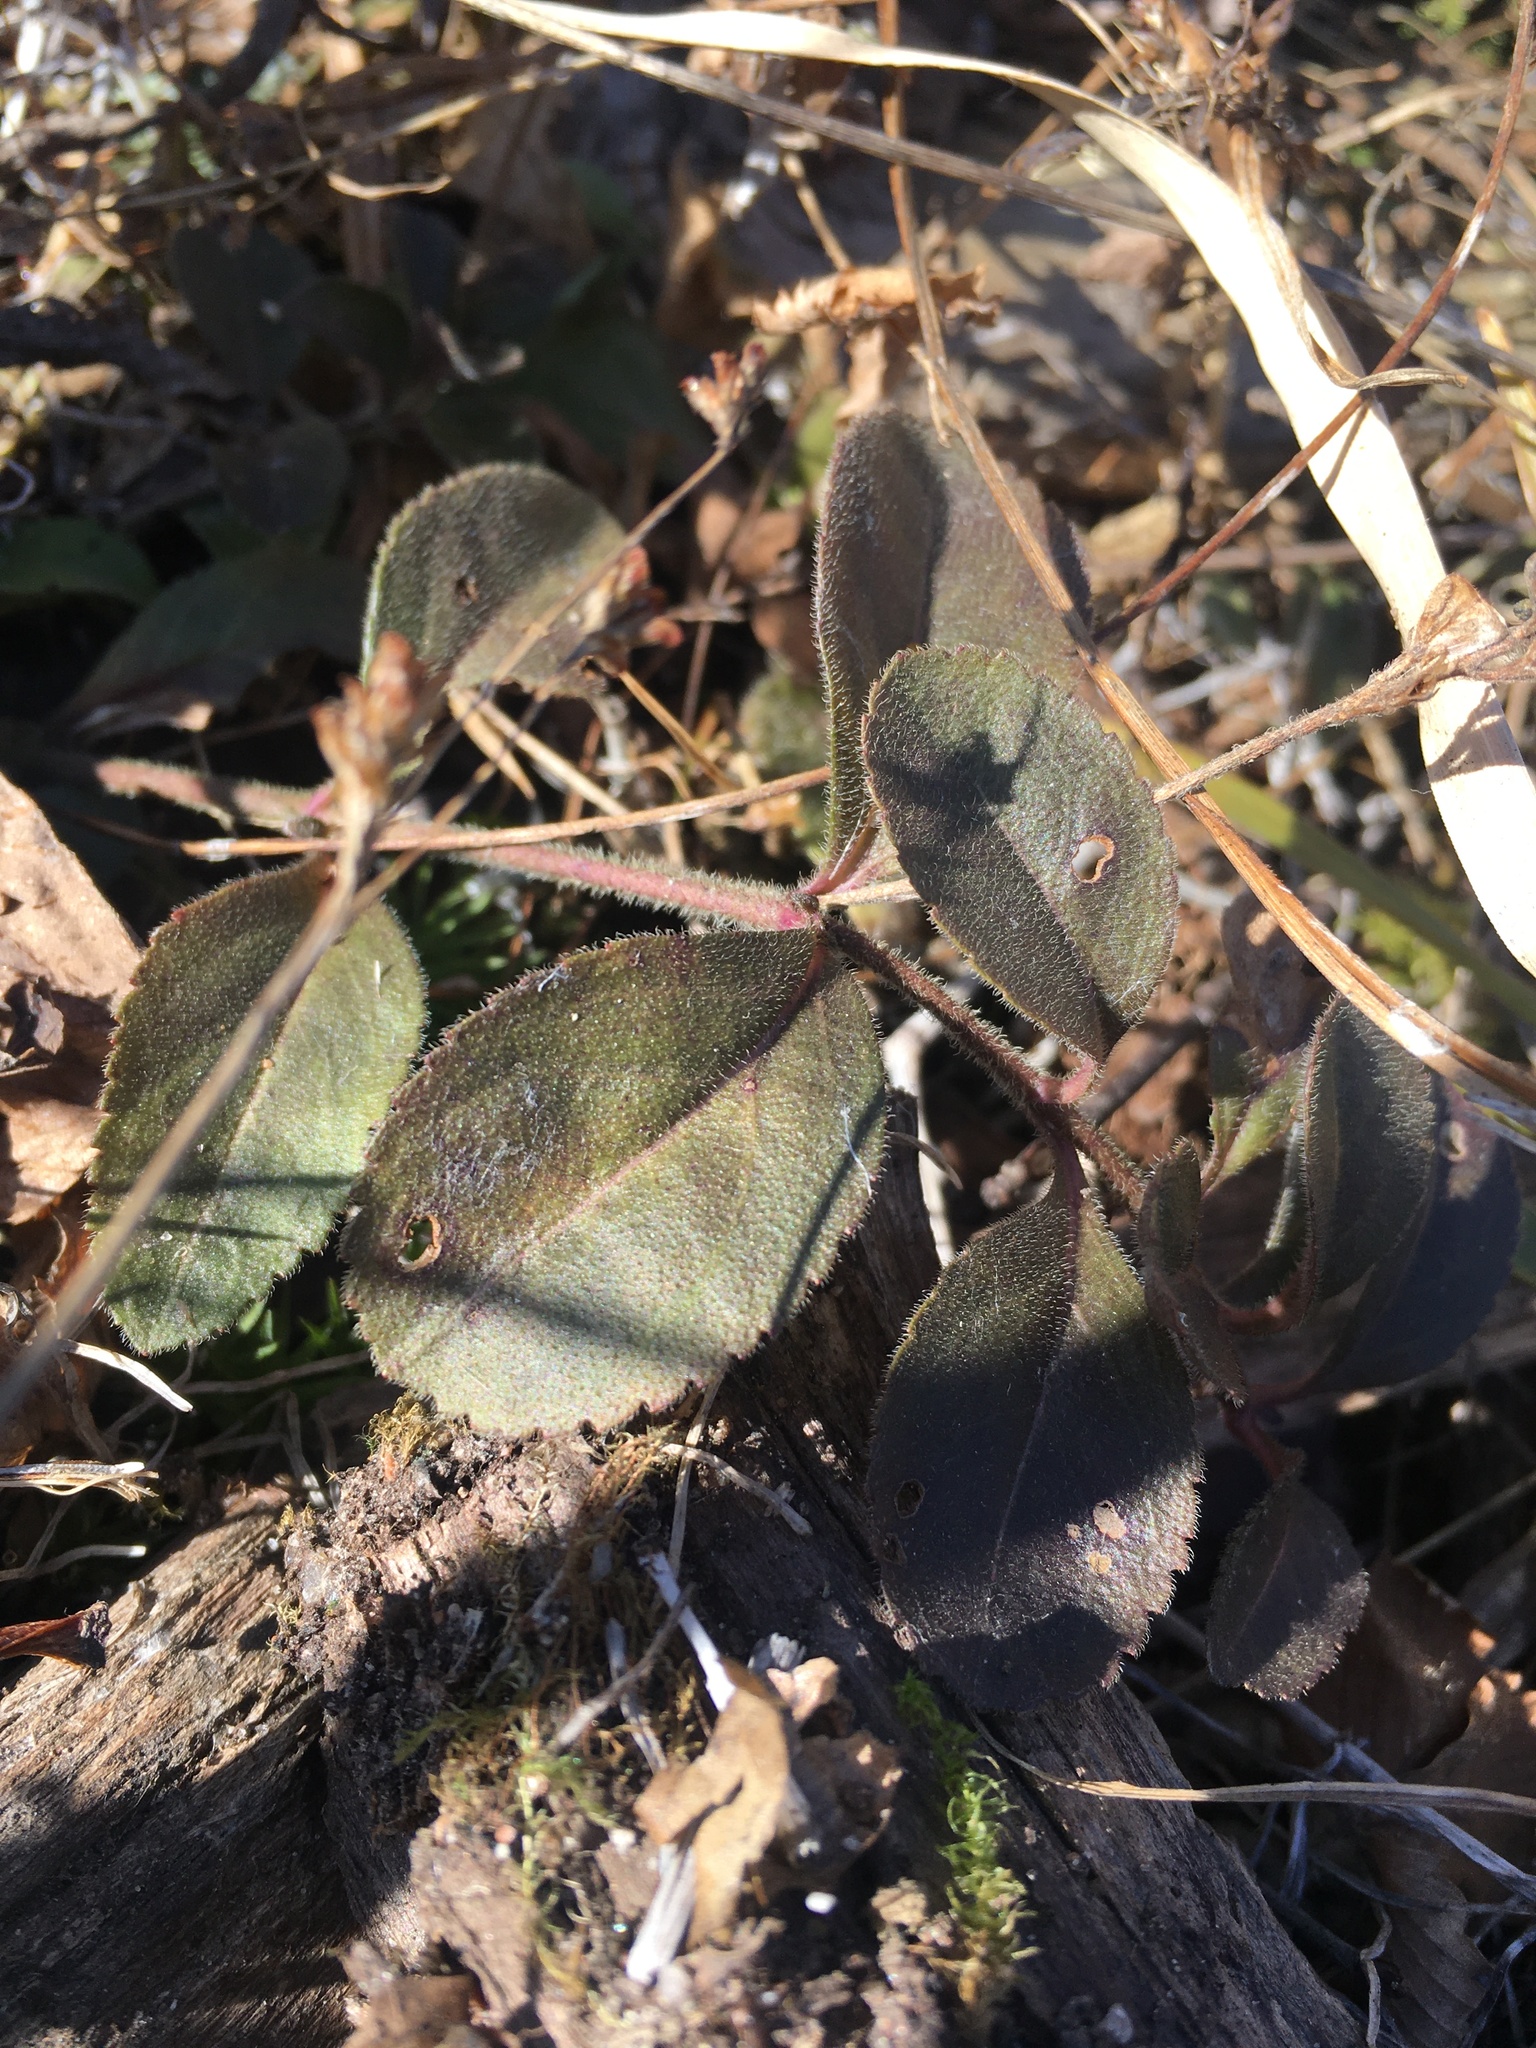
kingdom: Plantae
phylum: Tracheophyta
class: Magnoliopsida
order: Lamiales
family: Plantaginaceae
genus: Veronica
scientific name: Veronica officinalis
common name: Common speedwell
